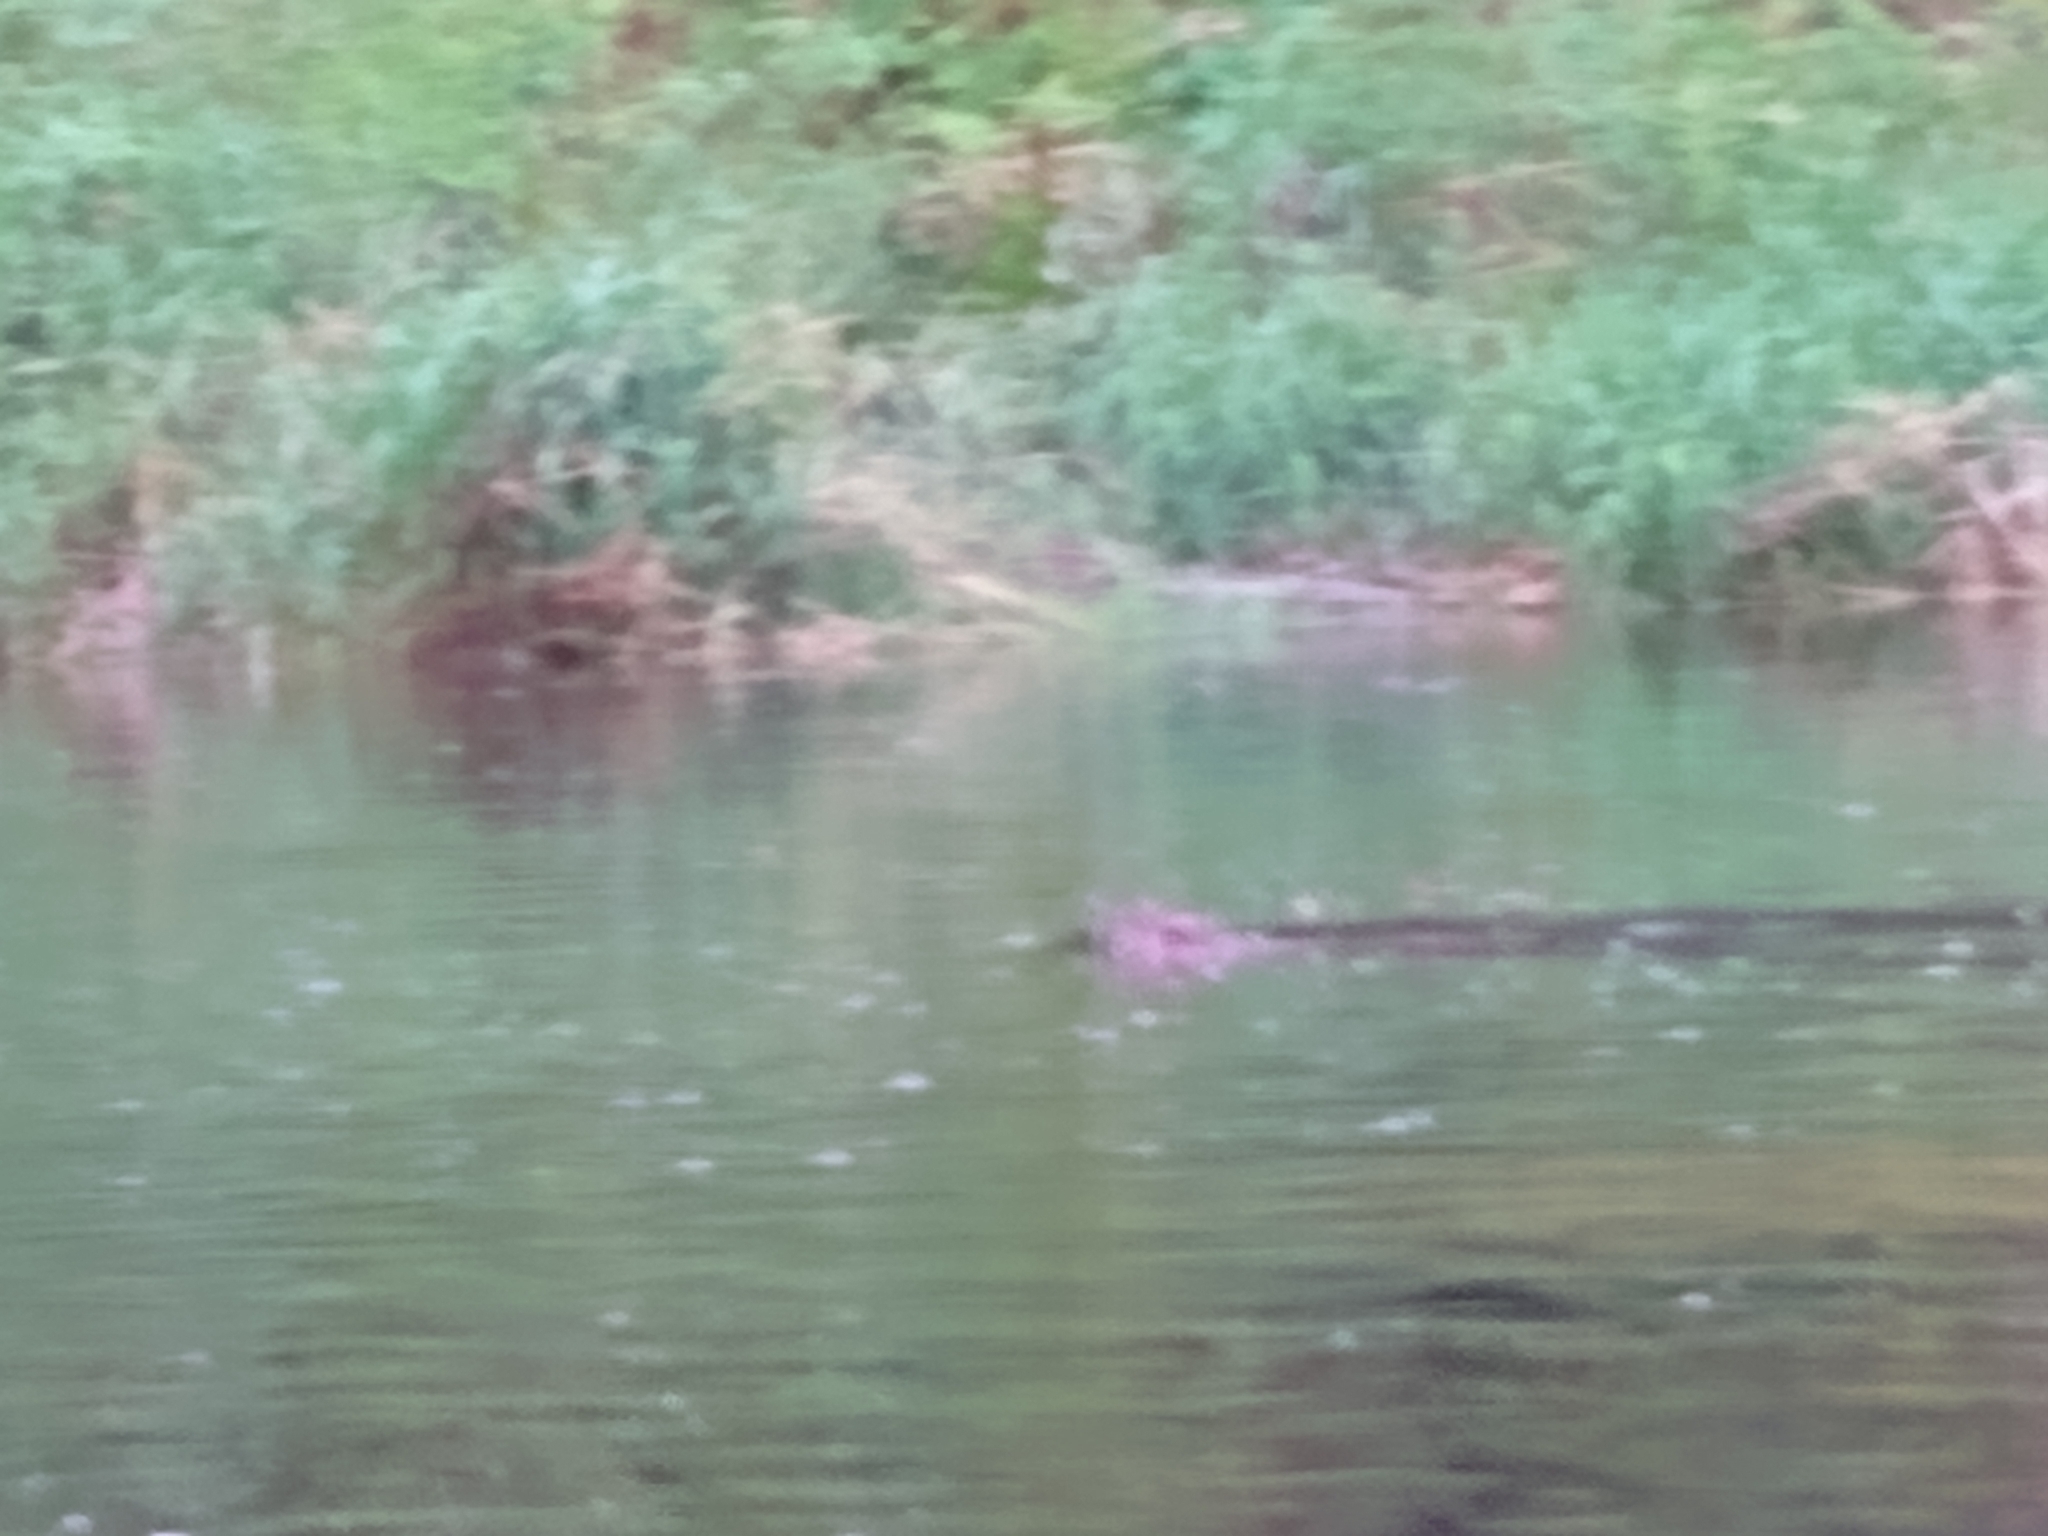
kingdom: Animalia
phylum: Chordata
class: Mammalia
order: Rodentia
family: Castoridae
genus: Castor
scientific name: Castor canadensis
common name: American beaver
